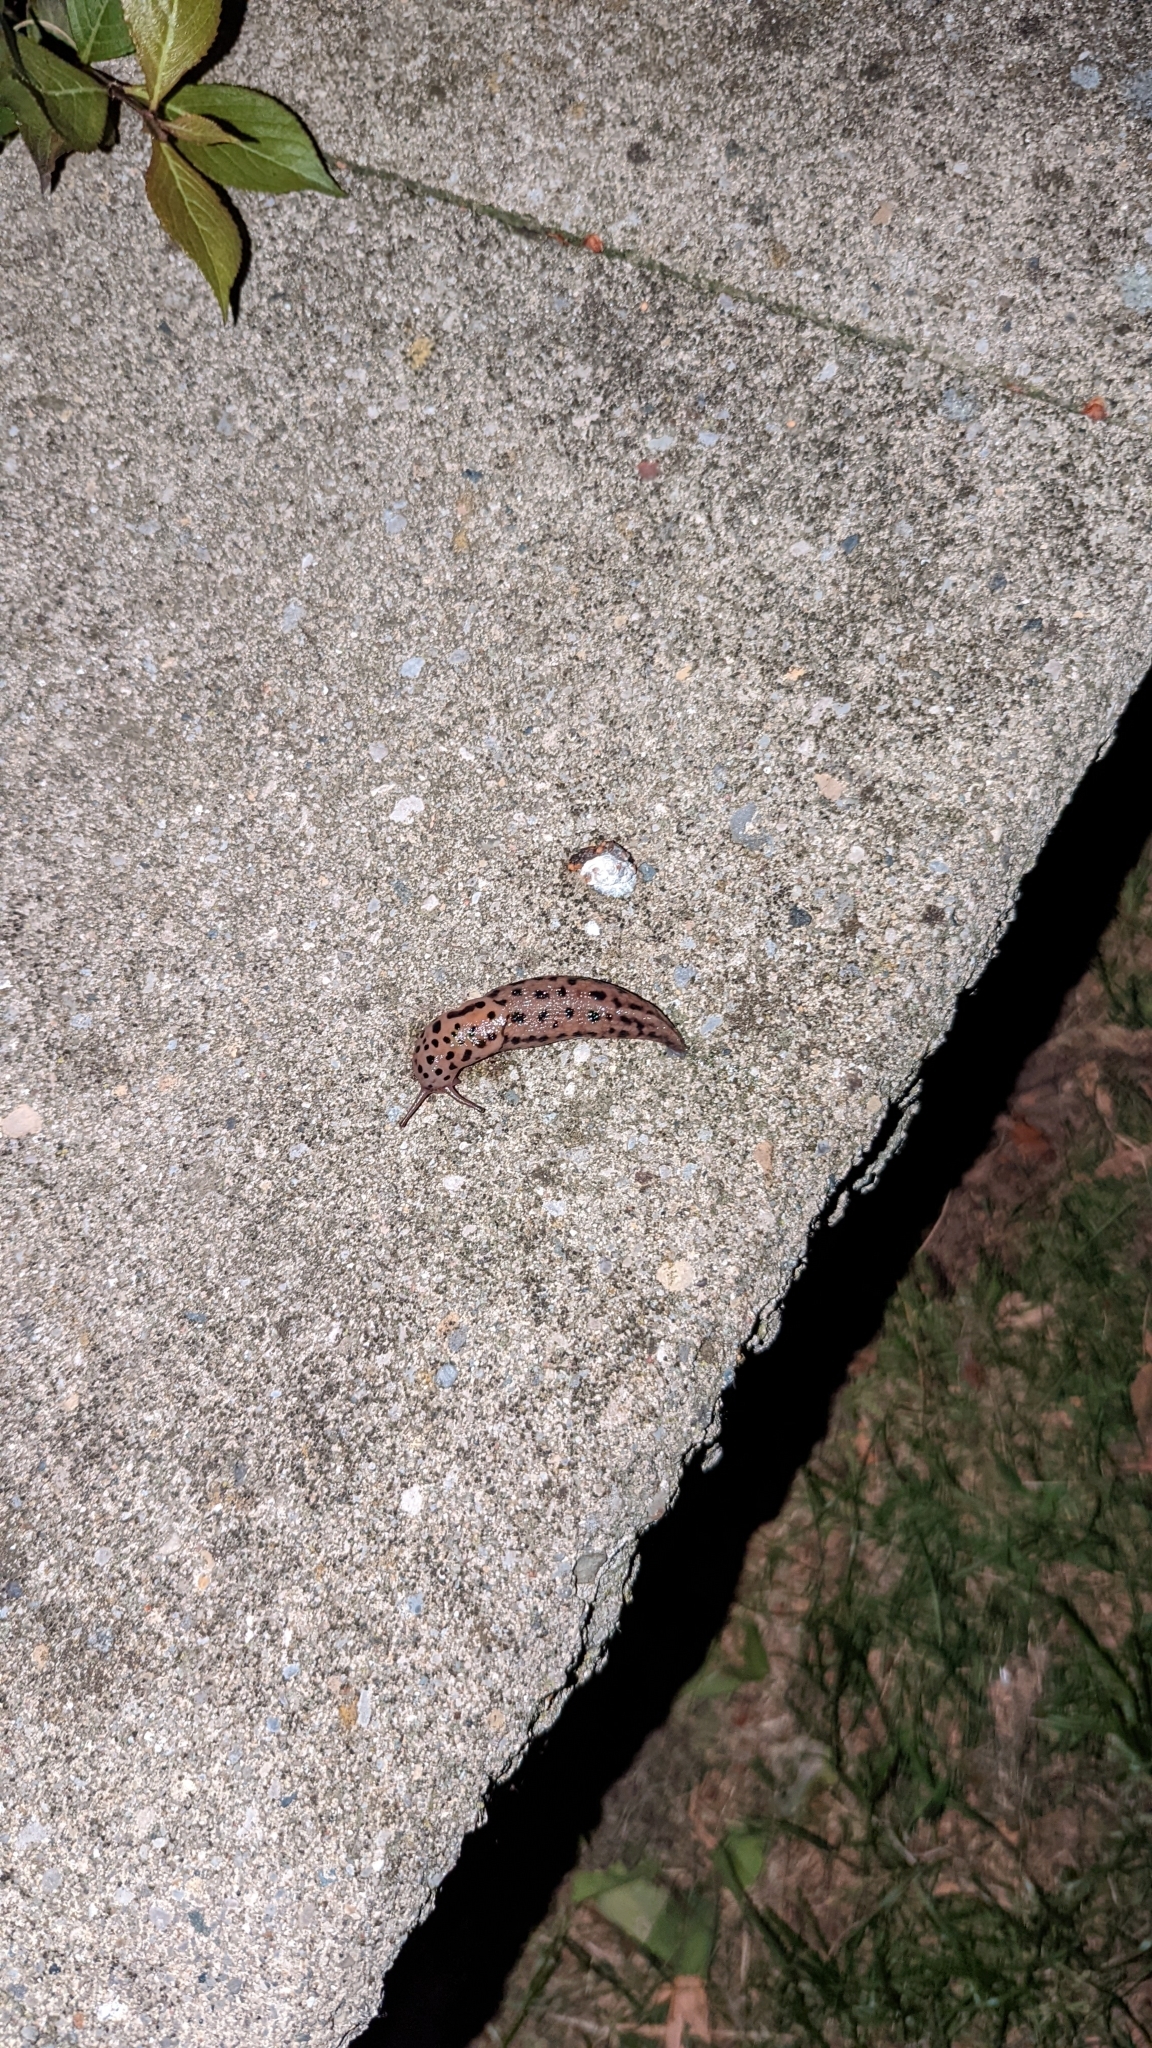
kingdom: Animalia
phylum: Mollusca
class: Gastropoda
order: Stylommatophora
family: Limacidae
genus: Limax
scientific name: Limax maximus
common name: Great grey slug
